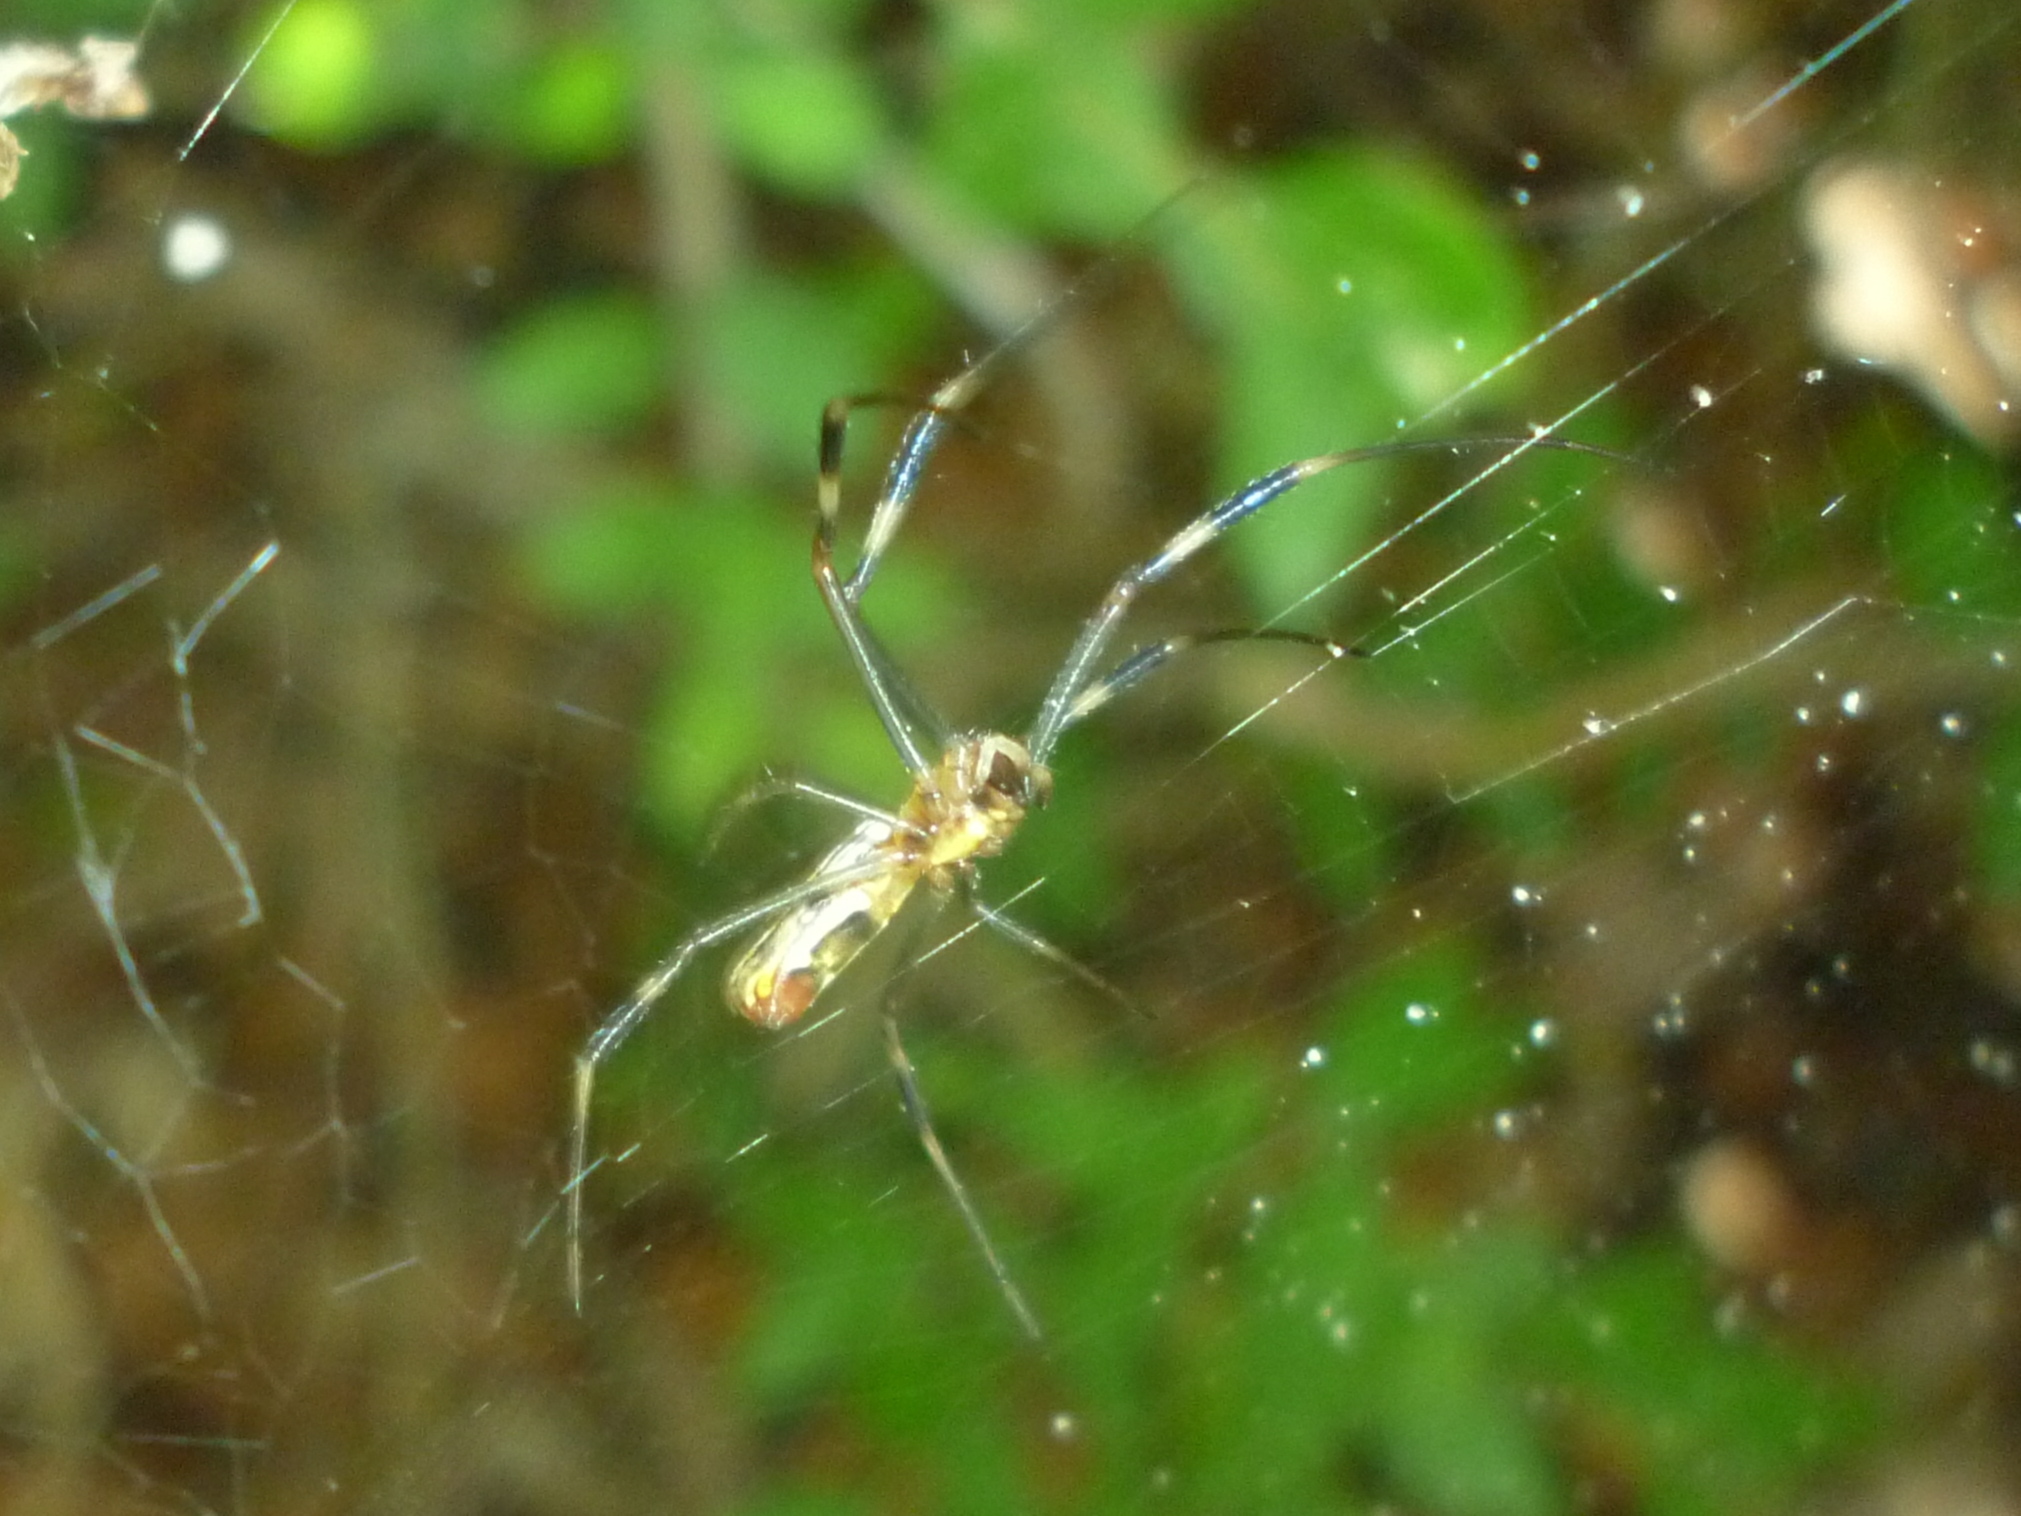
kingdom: Animalia
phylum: Arthropoda
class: Arachnida
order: Araneae
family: Araneidae
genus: Trichonephila
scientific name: Trichonephila clavipes
